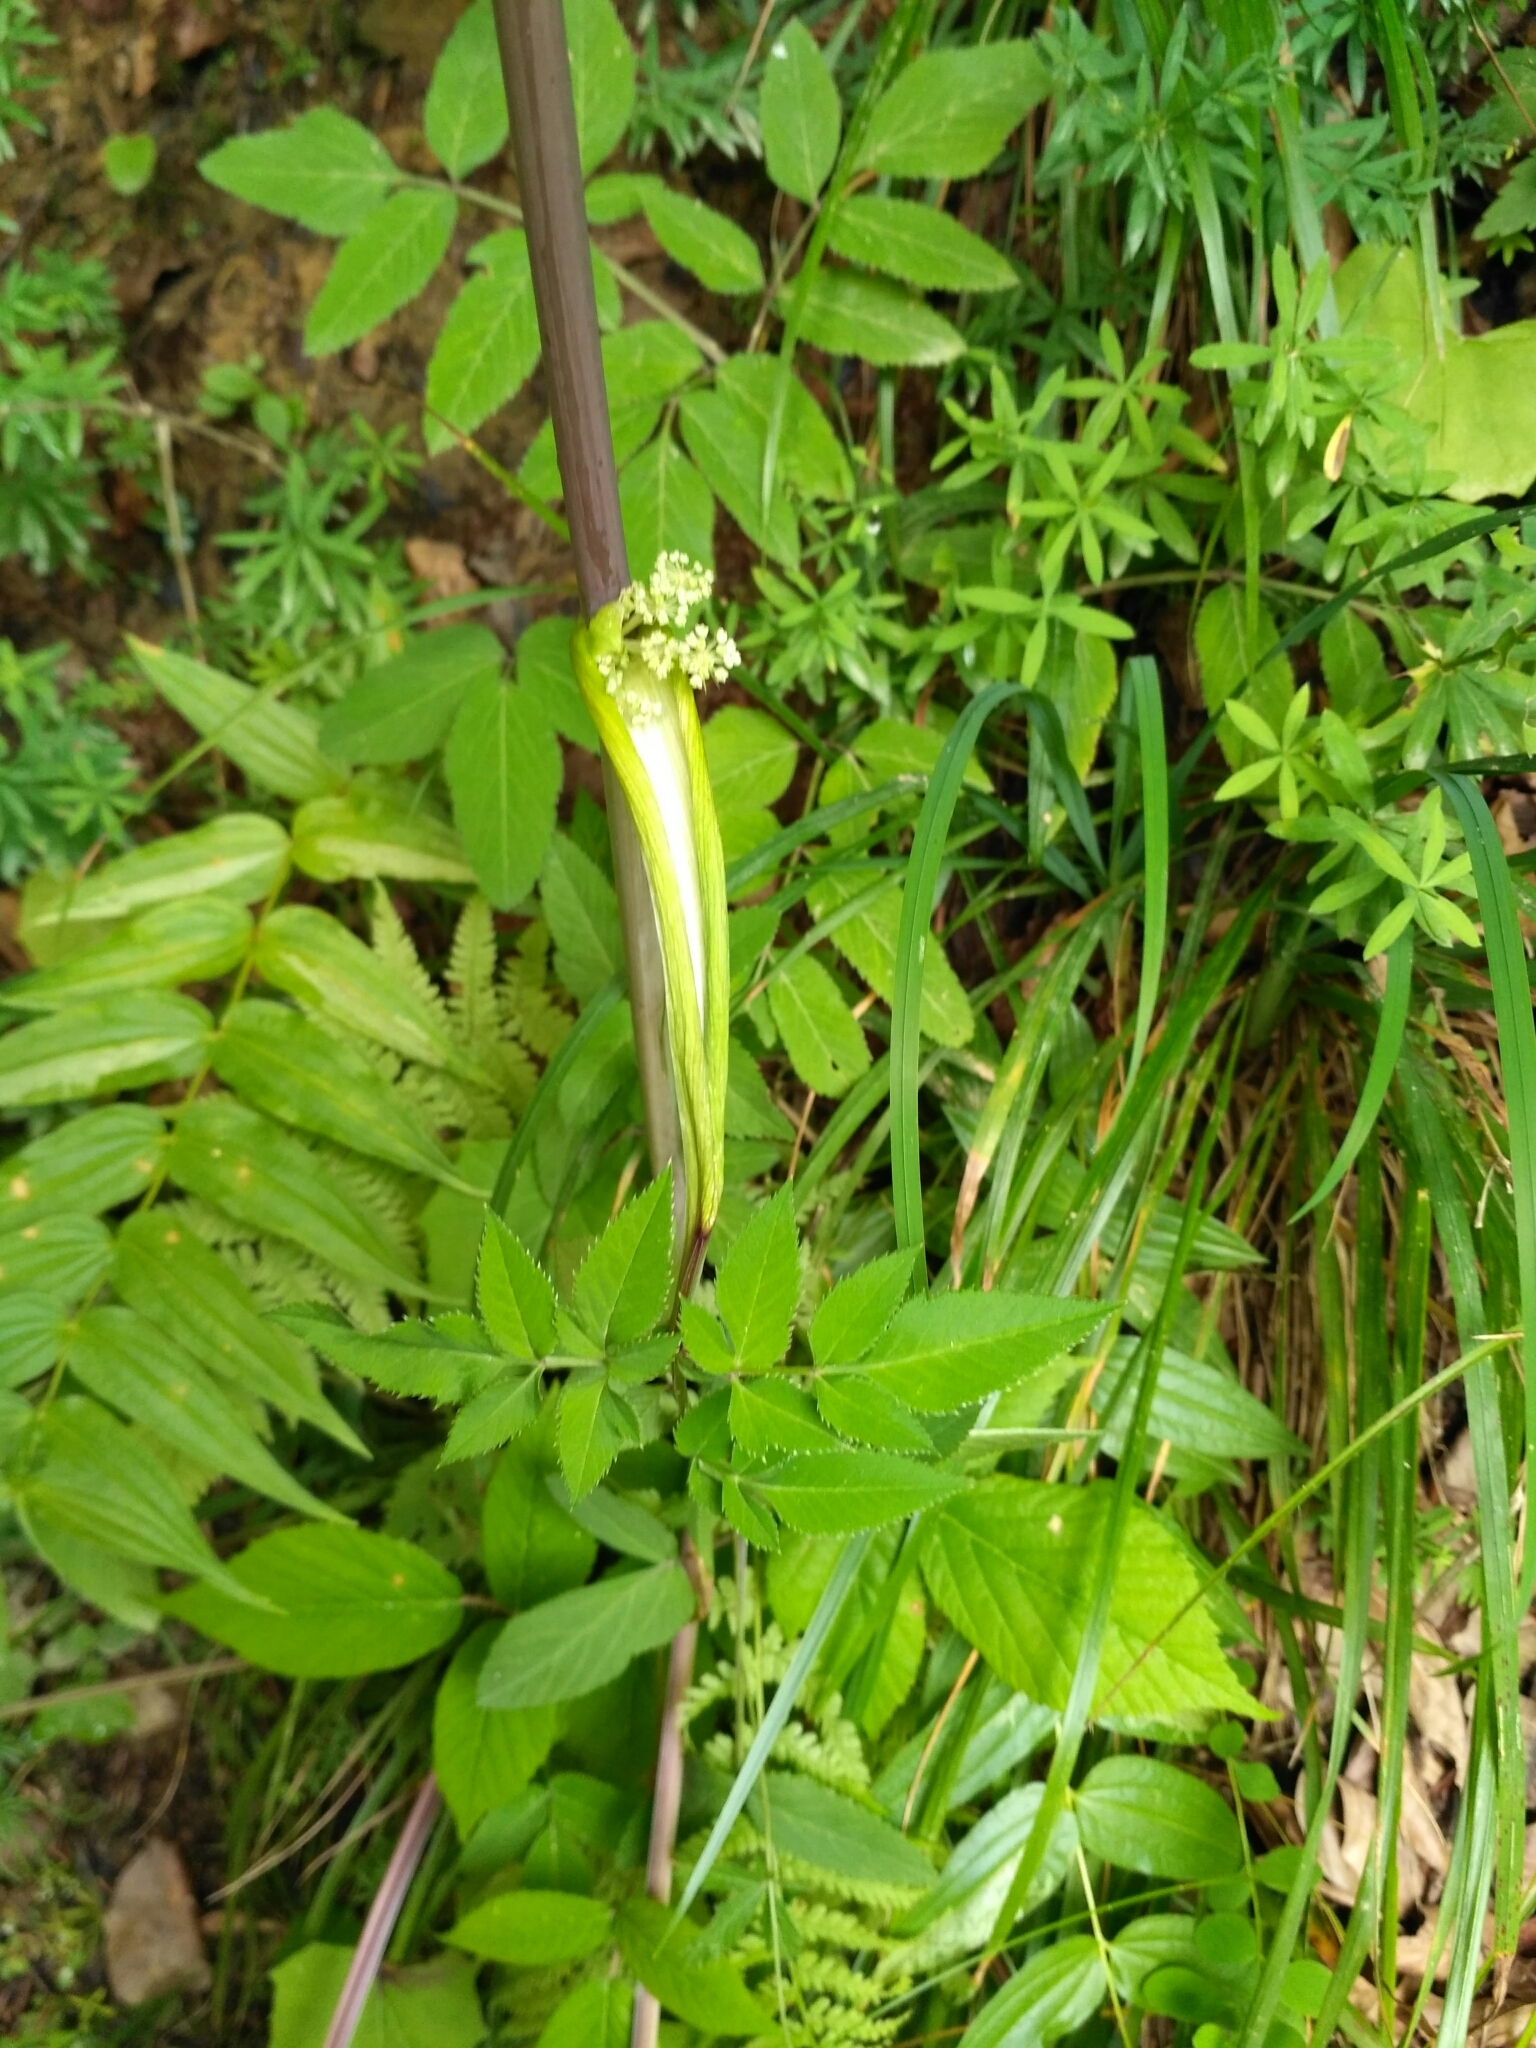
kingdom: Plantae
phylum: Tracheophyta
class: Magnoliopsida
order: Apiales
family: Apiaceae
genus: Angelica
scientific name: Angelica sylvestris
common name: Wild angelica
